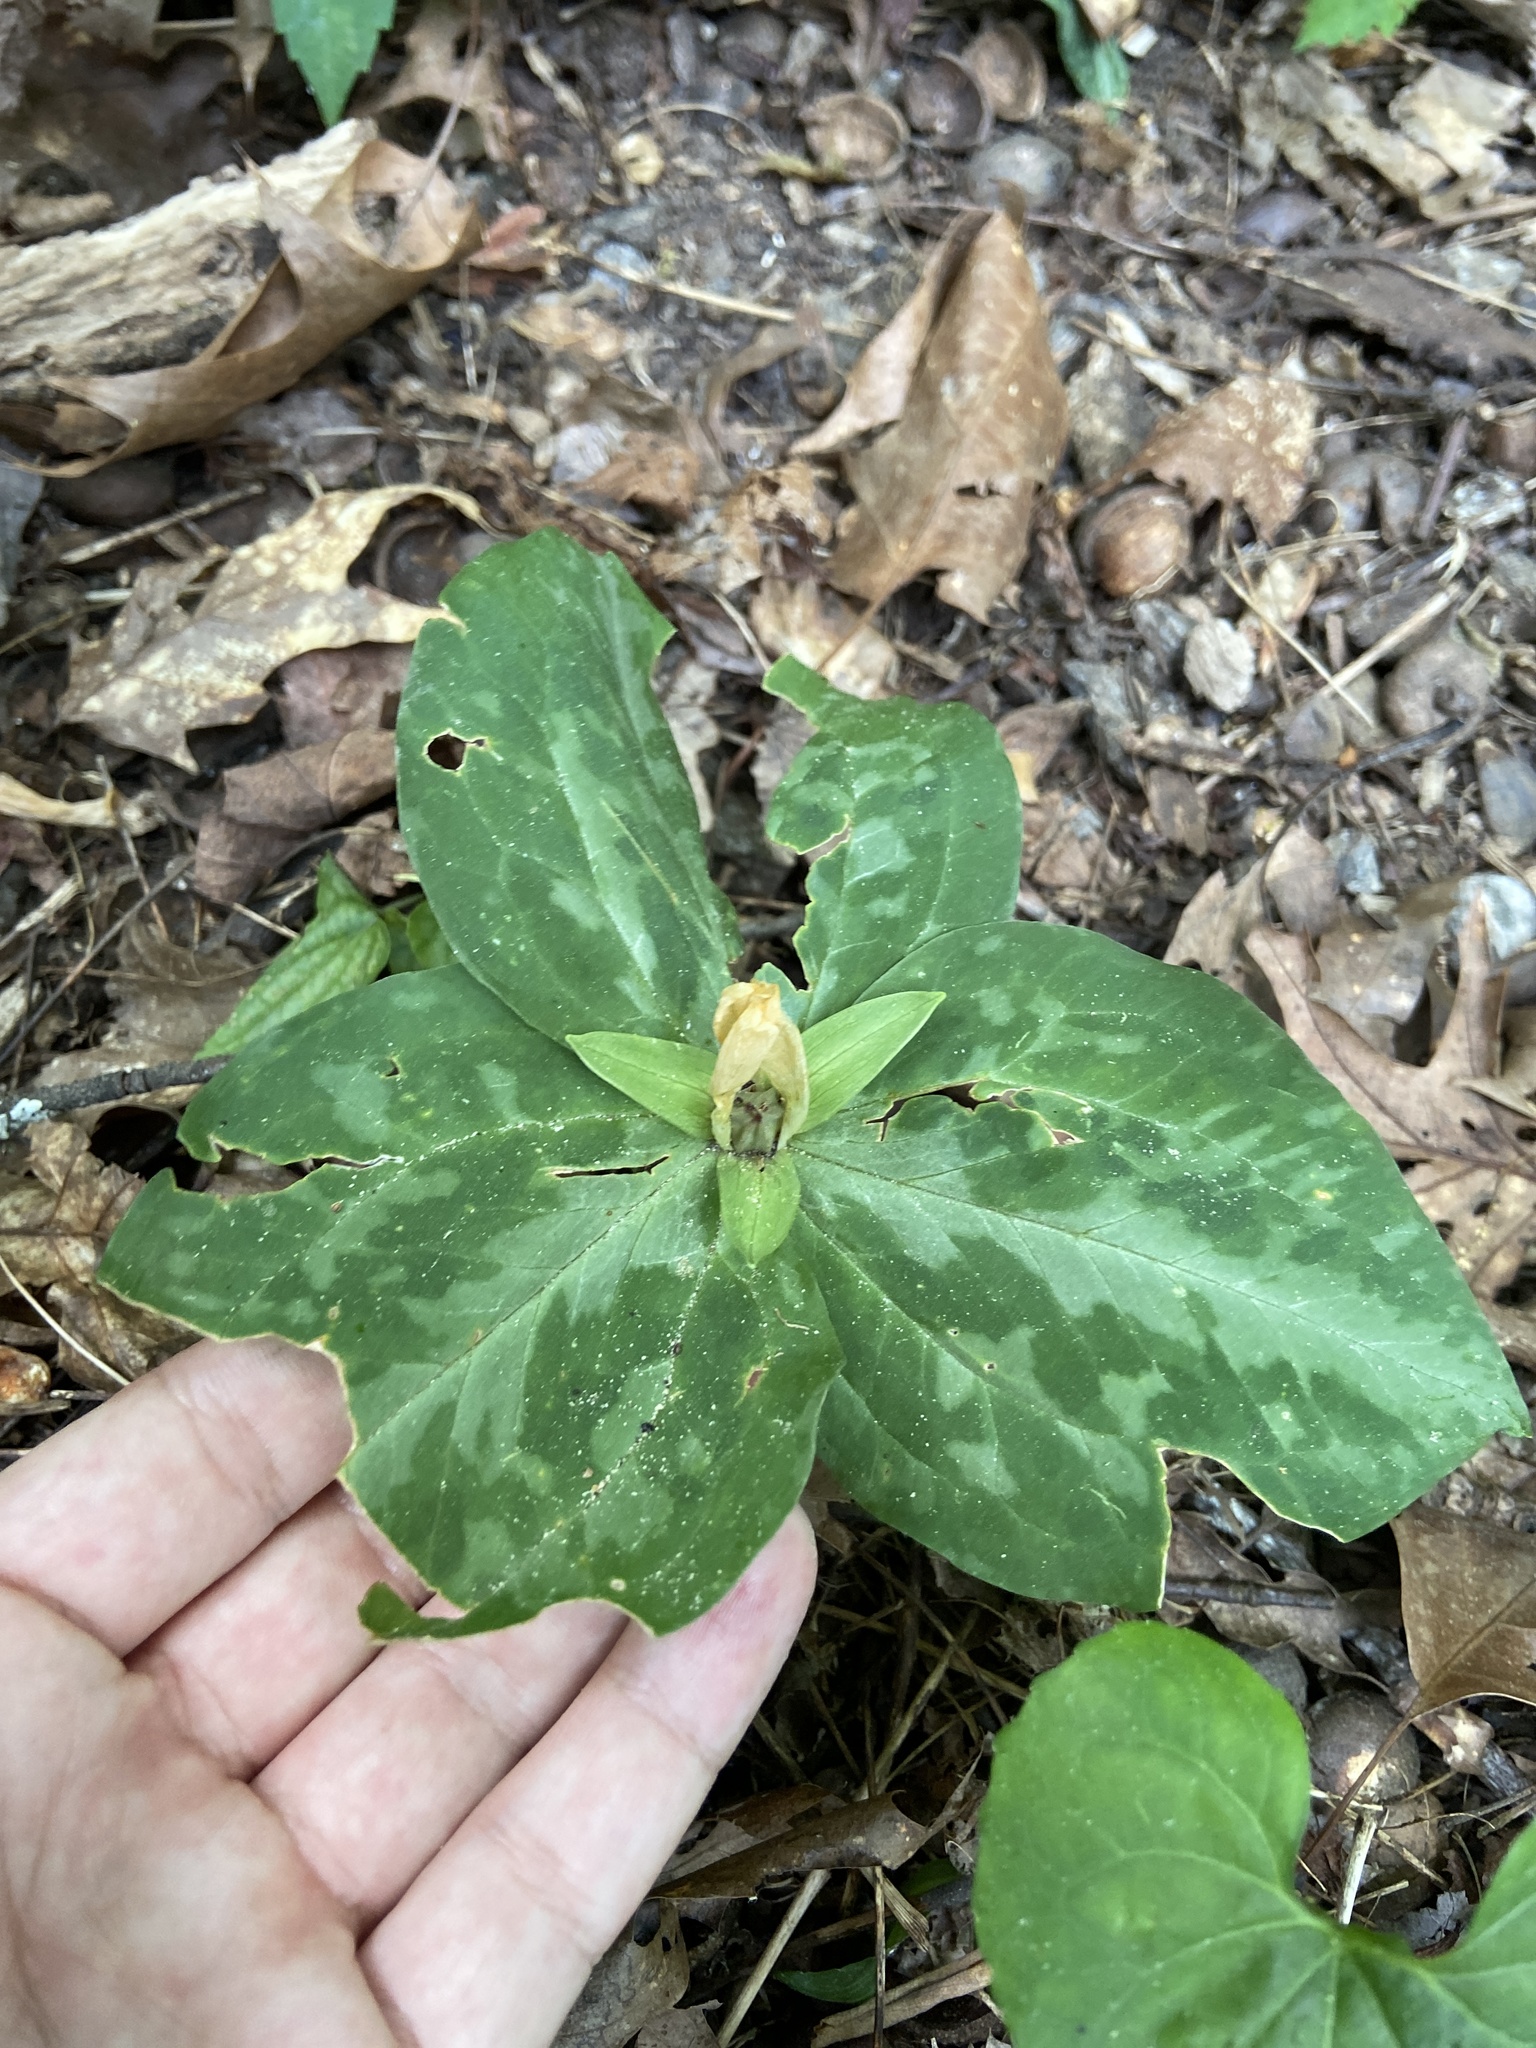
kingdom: Plantae
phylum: Tracheophyta
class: Liliopsida
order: Liliales
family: Melanthiaceae
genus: Trillium
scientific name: Trillium discolor
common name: Faded trillium
